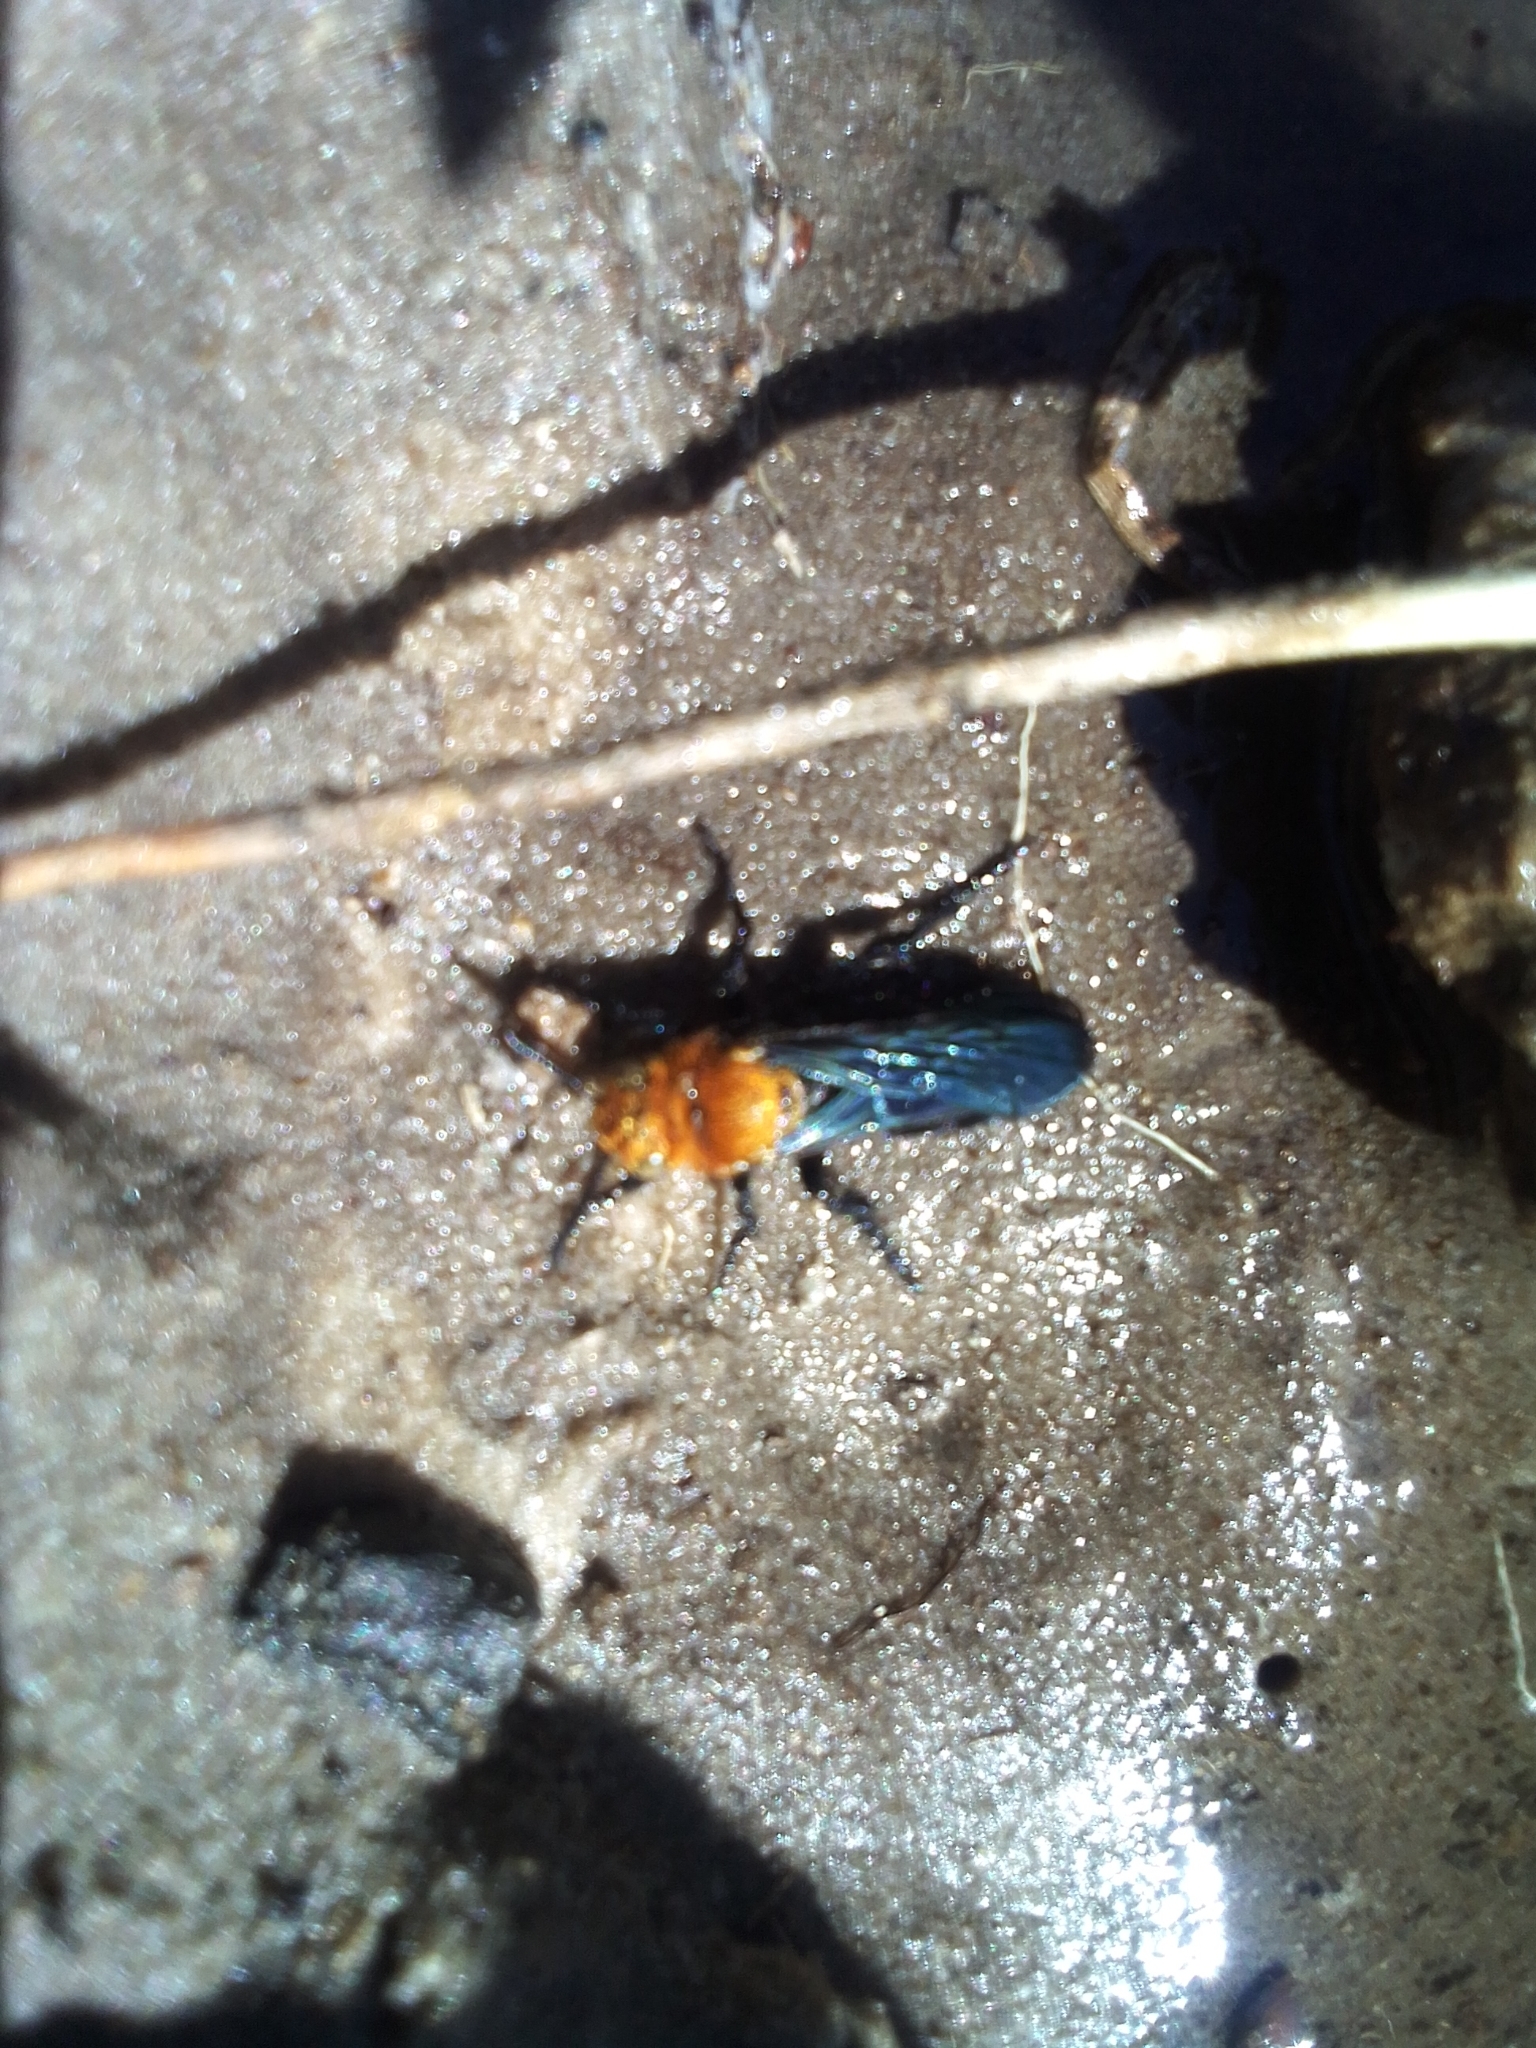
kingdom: Animalia
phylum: Arthropoda
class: Insecta
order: Hymenoptera
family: Scoliidae
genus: Campsomeriella
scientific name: Campsomeriella caelebs
